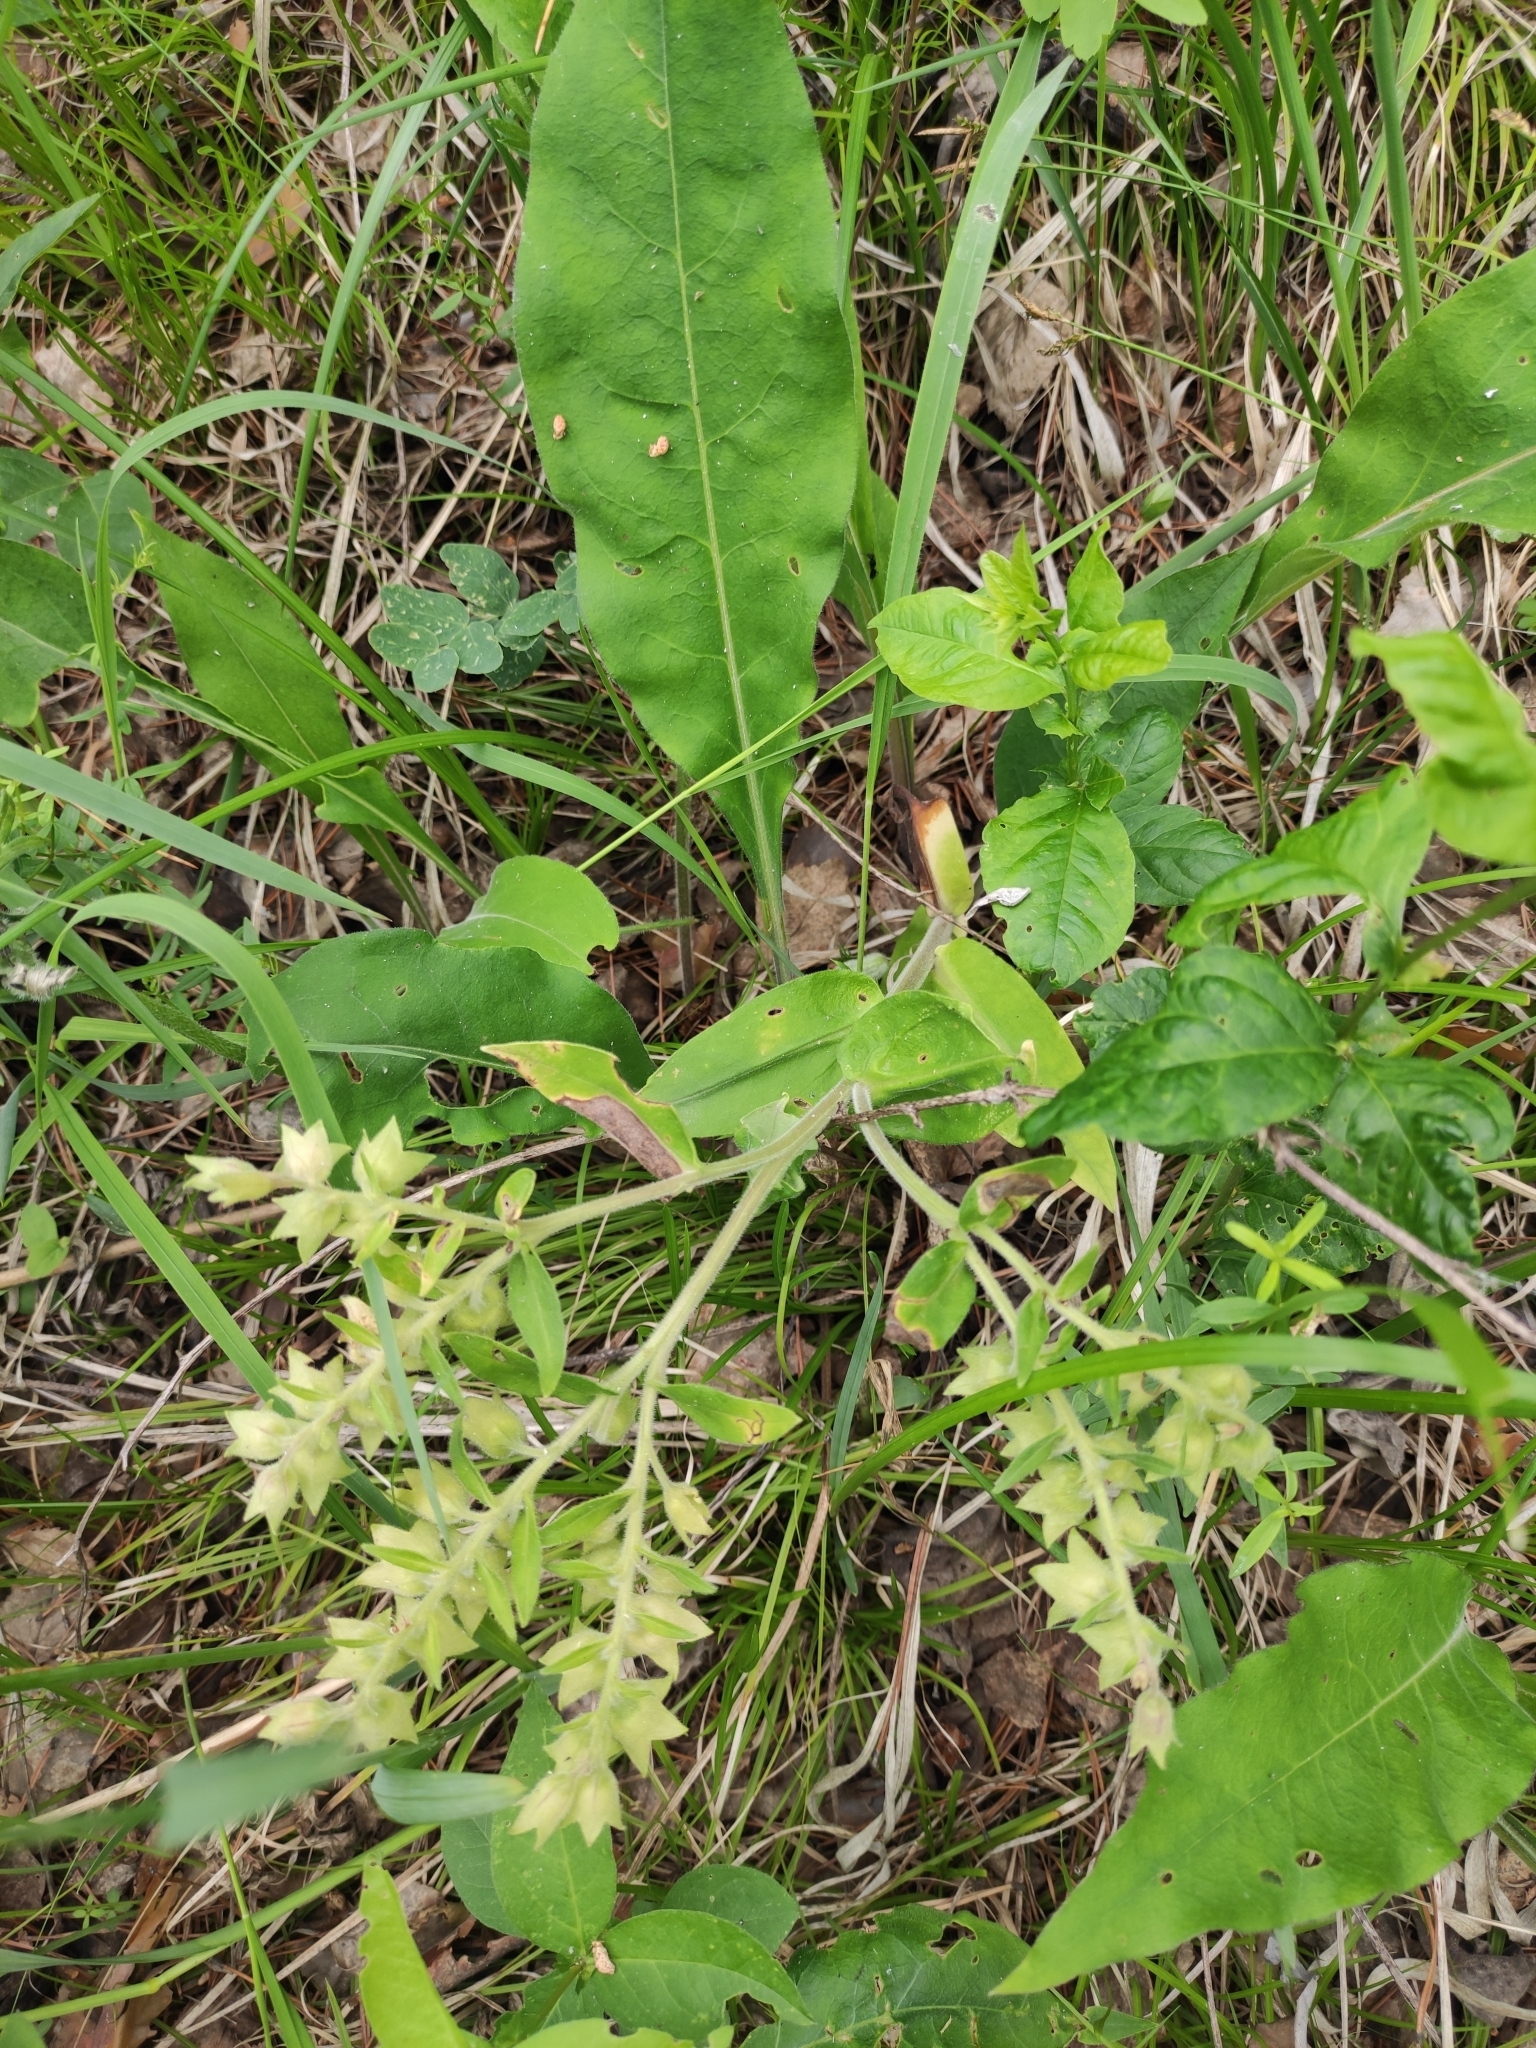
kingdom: Plantae
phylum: Tracheophyta
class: Magnoliopsida
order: Boraginales
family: Boraginaceae
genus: Pulmonaria
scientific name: Pulmonaria mollis
